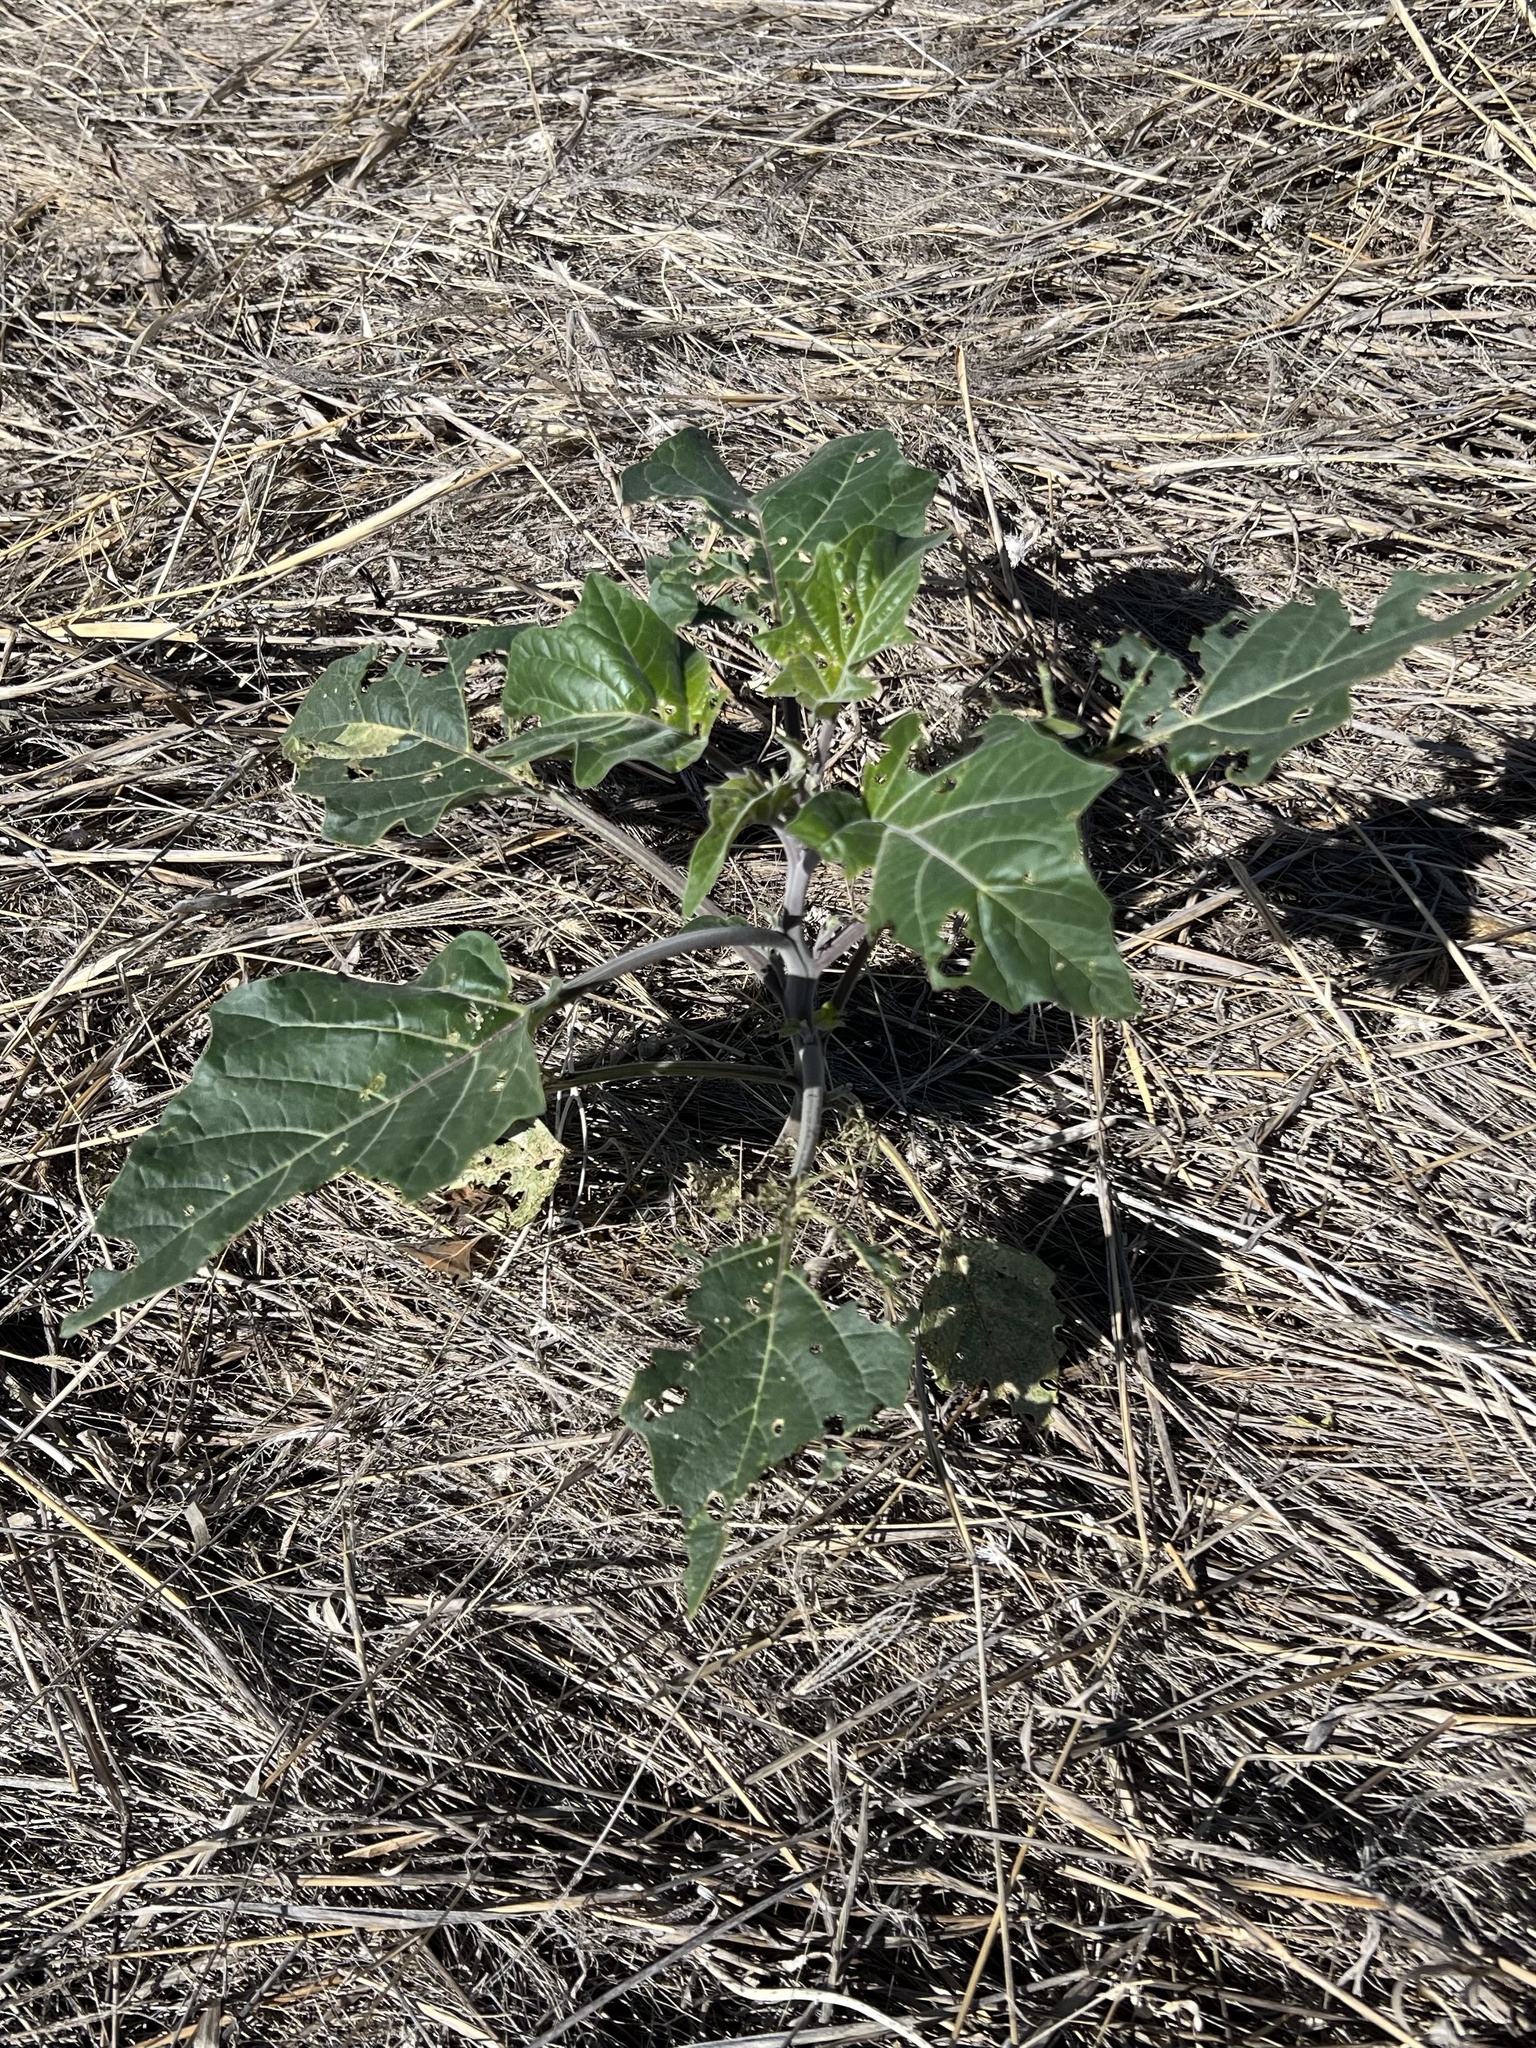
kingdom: Plantae
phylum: Tracheophyta
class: Magnoliopsida
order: Solanales
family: Solanaceae
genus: Datura
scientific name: Datura wrightii
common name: Sacred thorn-apple
